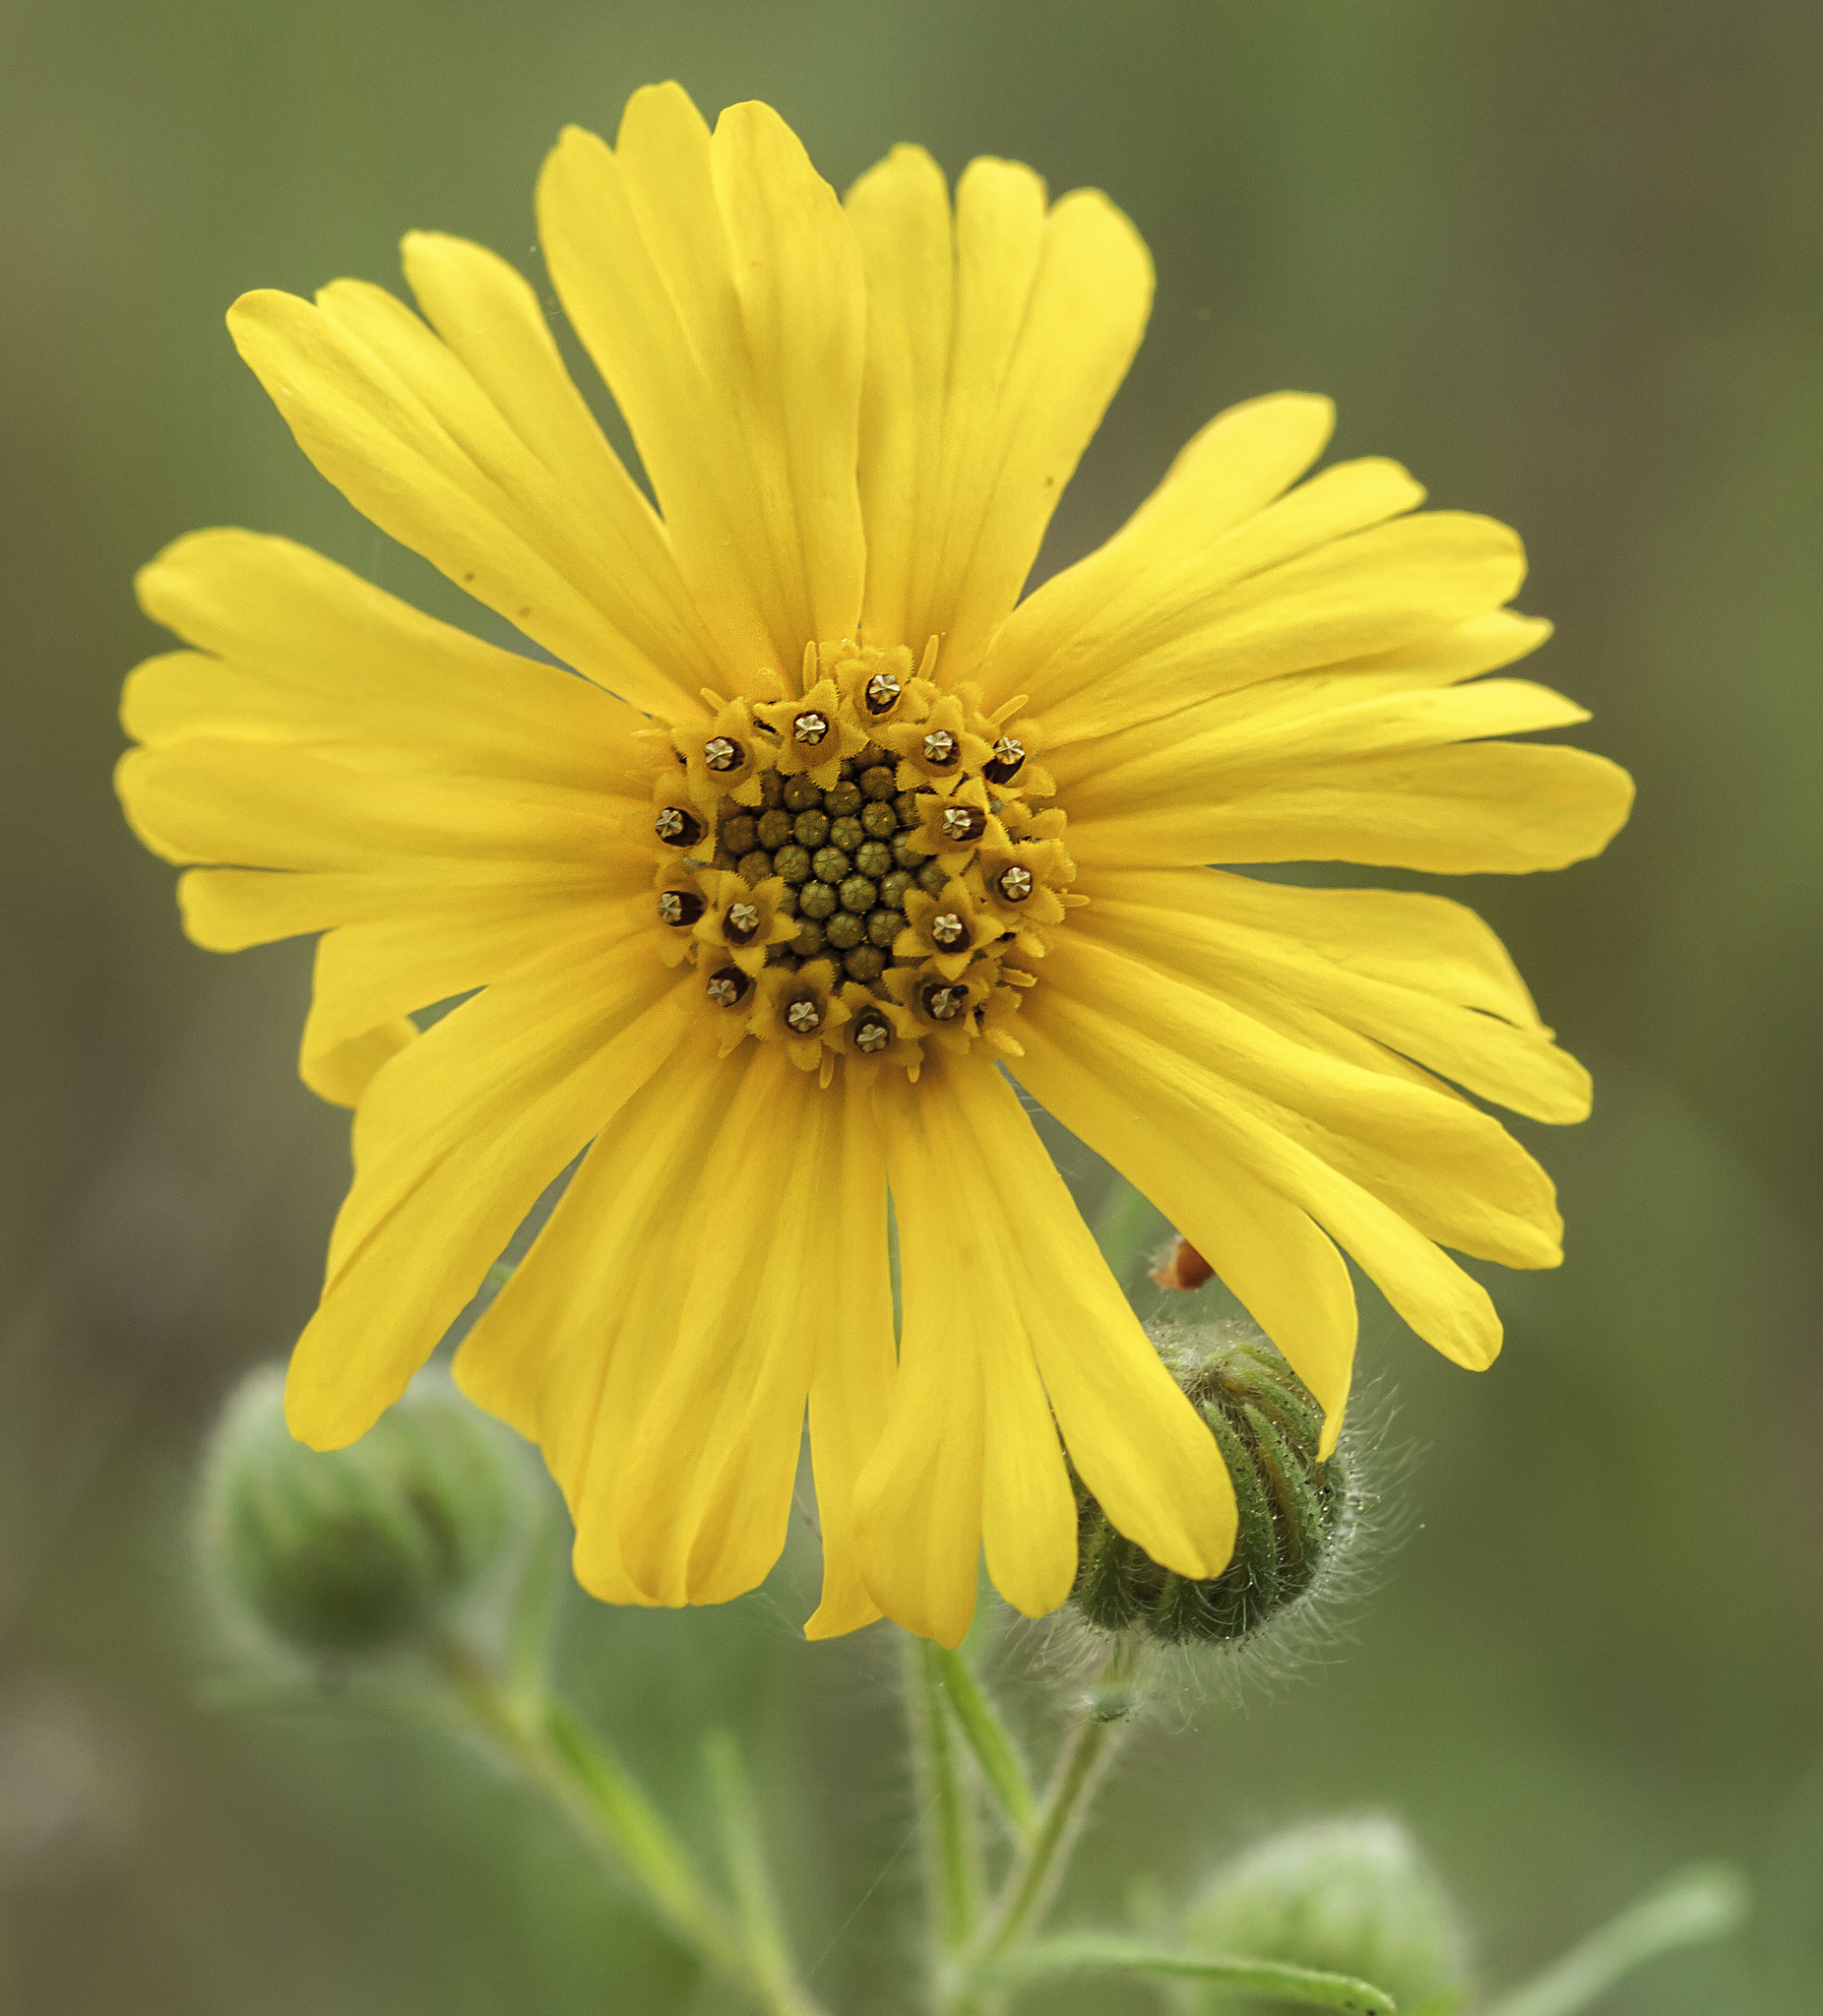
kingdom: Plantae
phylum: Tracheophyta
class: Magnoliopsida
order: Asterales
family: Asteraceae
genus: Madia
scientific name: Madia elegans
